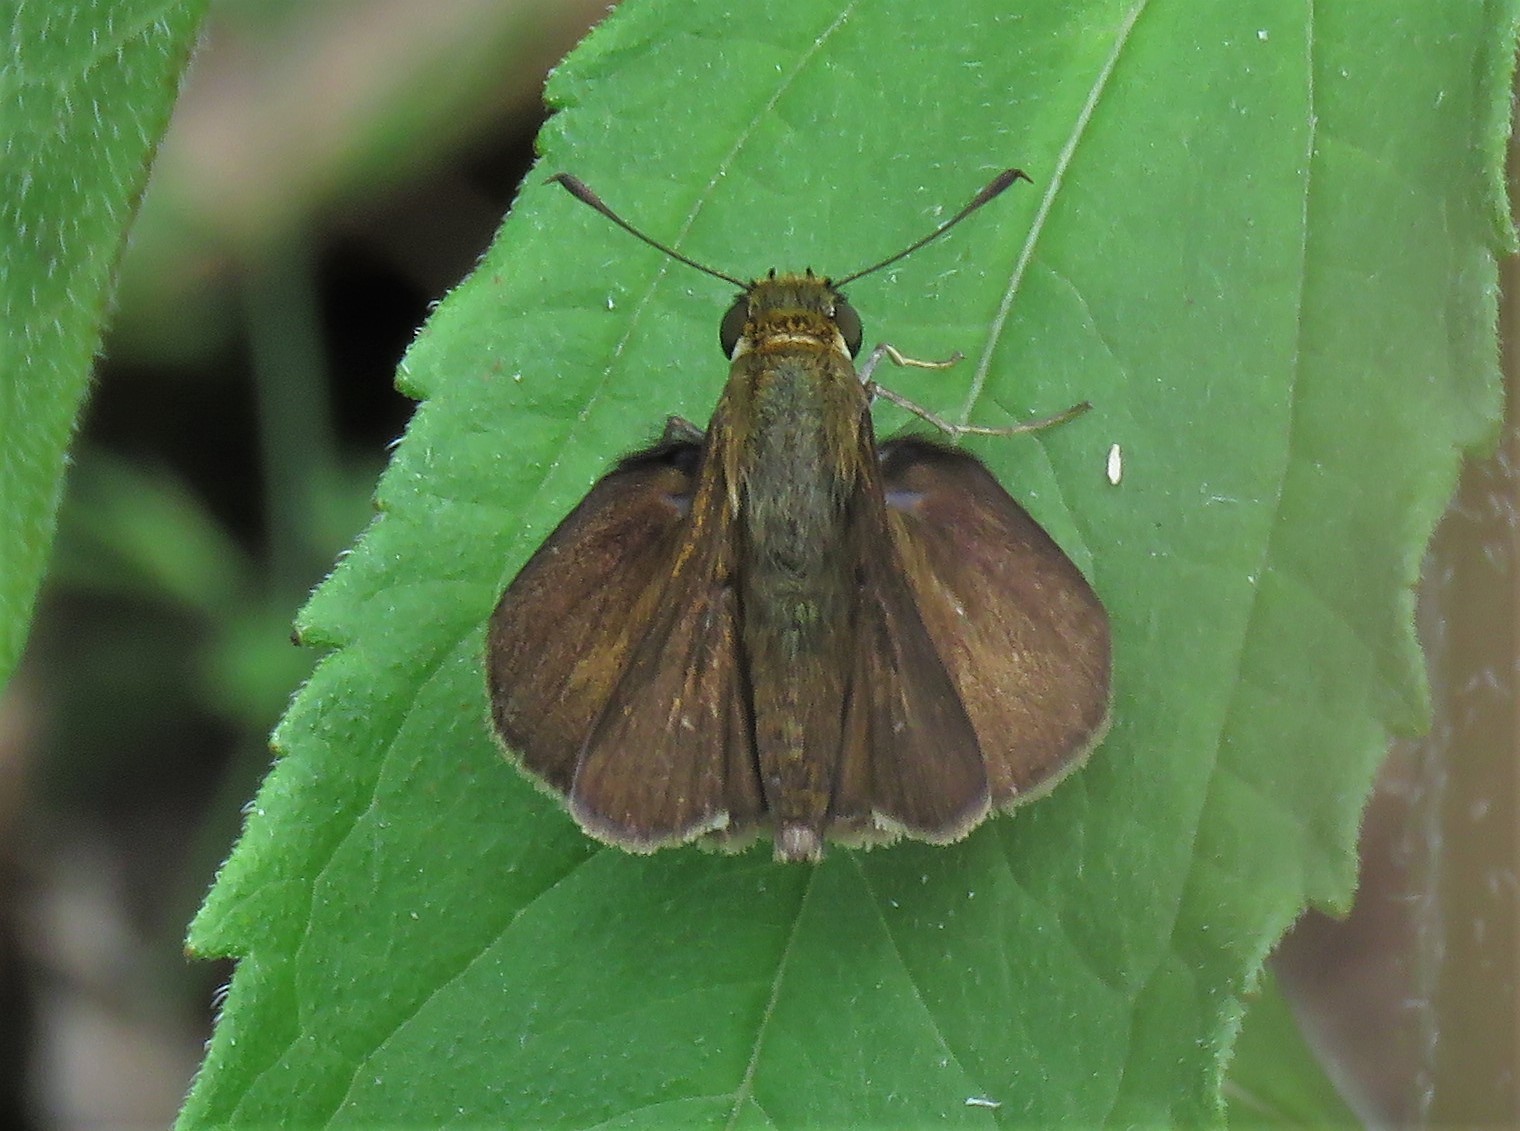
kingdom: Animalia
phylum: Arthropoda
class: Insecta
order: Lepidoptera
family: Hesperiidae
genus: Euphyes
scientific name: Euphyes vestris
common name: Dun skipper
